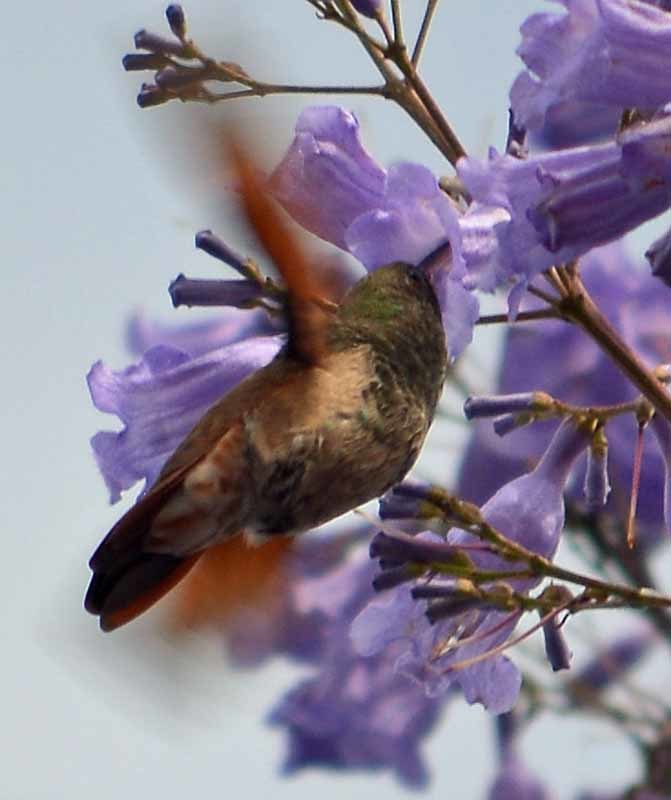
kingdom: Animalia
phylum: Chordata
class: Aves
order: Apodiformes
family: Trochilidae
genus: Saucerottia
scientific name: Saucerottia beryllina
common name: Berylline hummingbird
